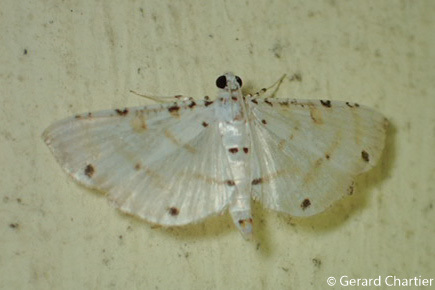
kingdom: Animalia
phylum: Arthropoda
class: Insecta
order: Lepidoptera
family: Crambidae
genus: Pycnarmon
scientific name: Pycnarmon cribrata
